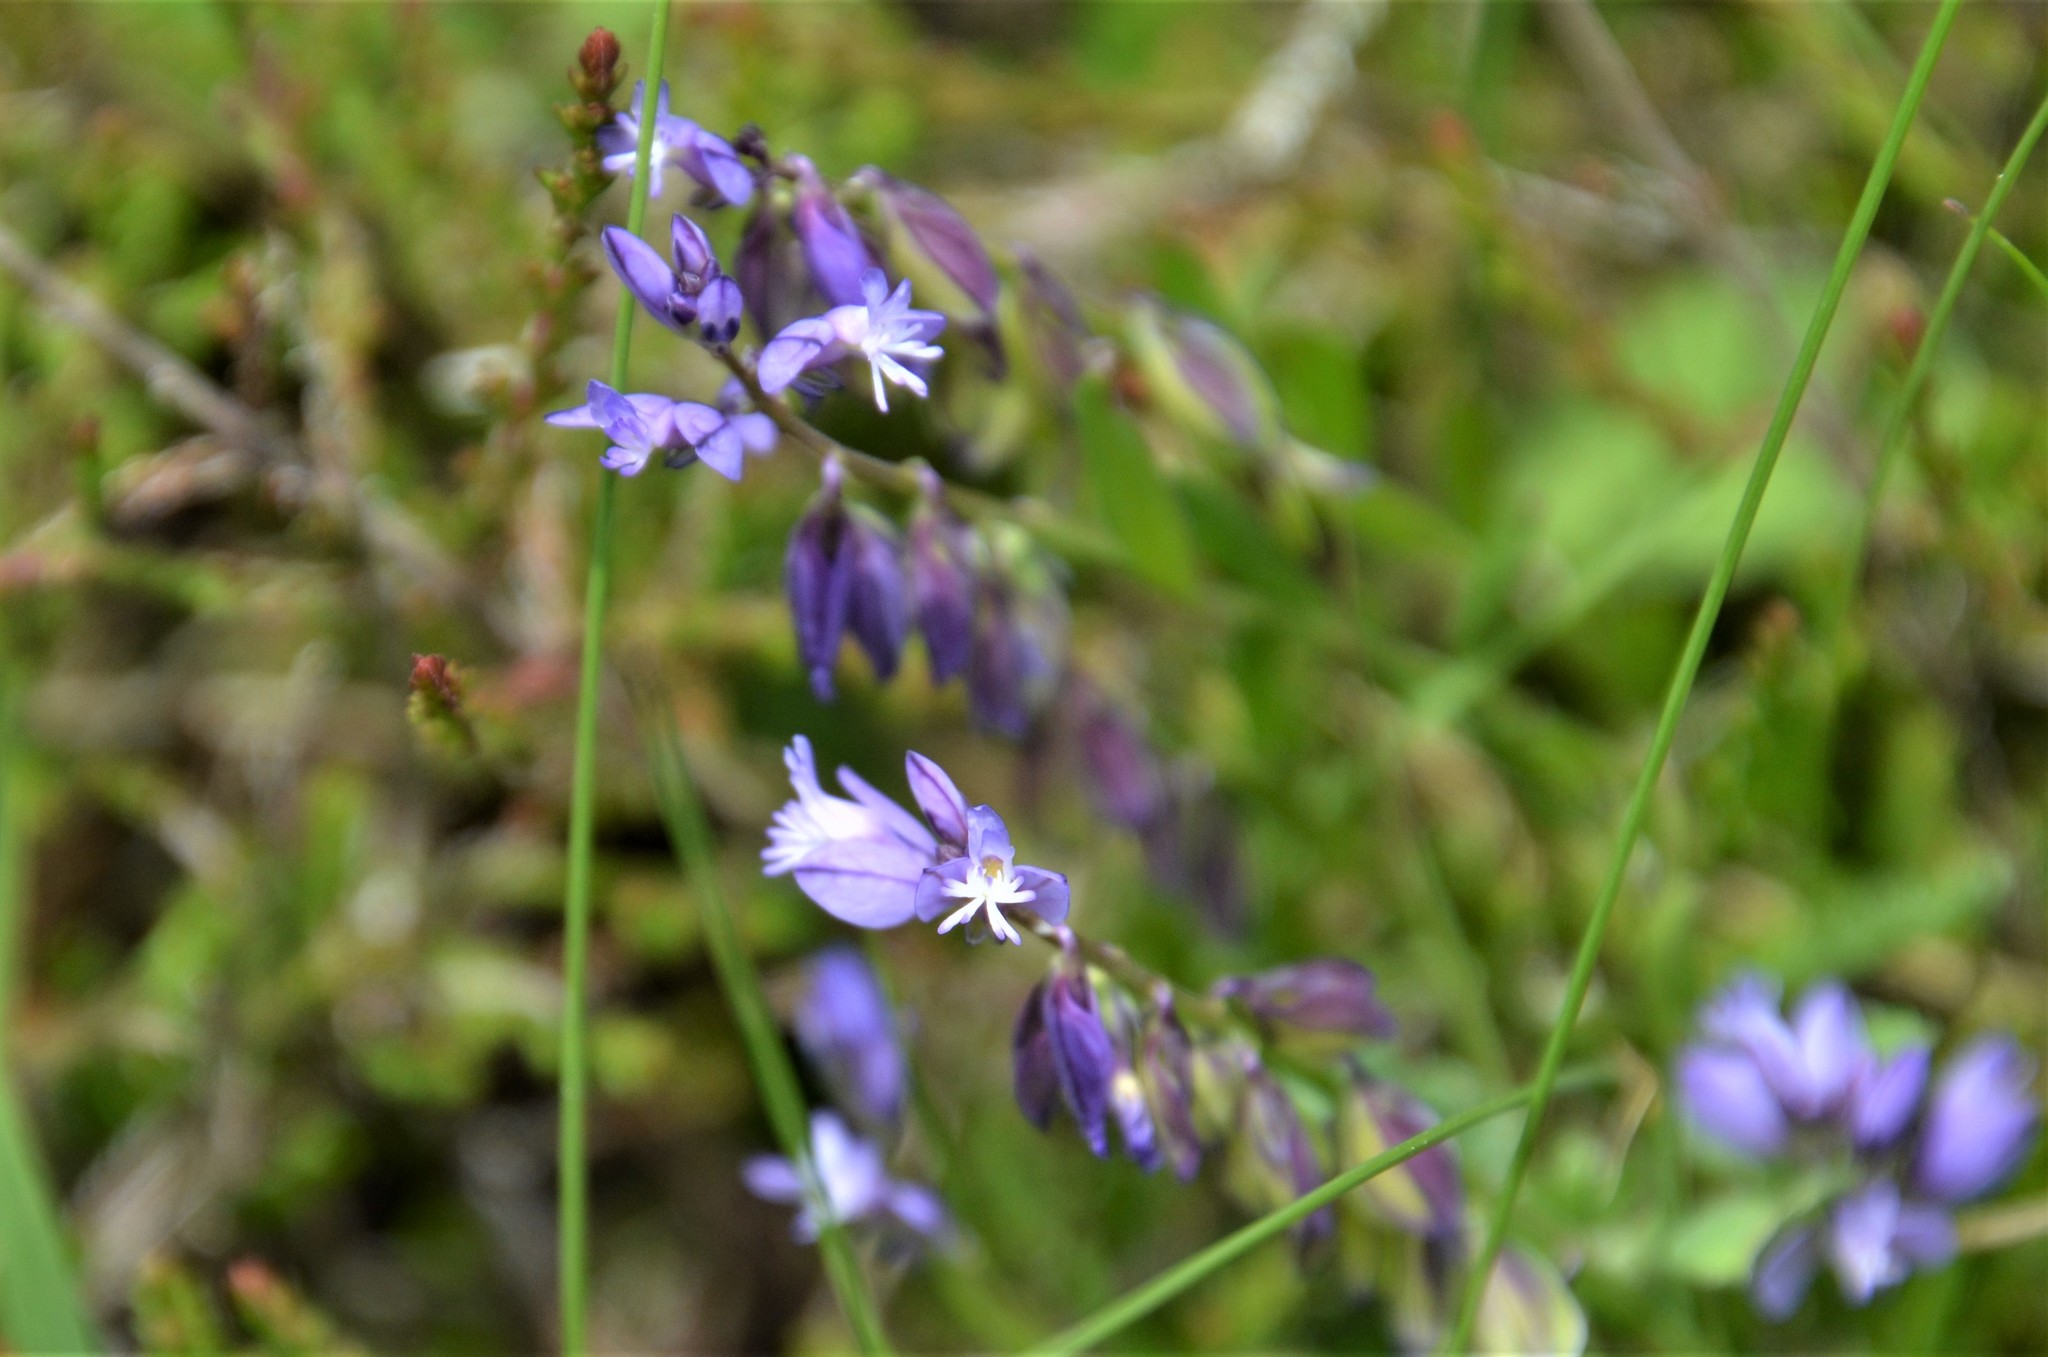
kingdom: Plantae
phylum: Tracheophyta
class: Magnoliopsida
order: Fabales
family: Polygalaceae
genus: Polygala
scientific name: Polygala vulgaris
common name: Common milkwort
